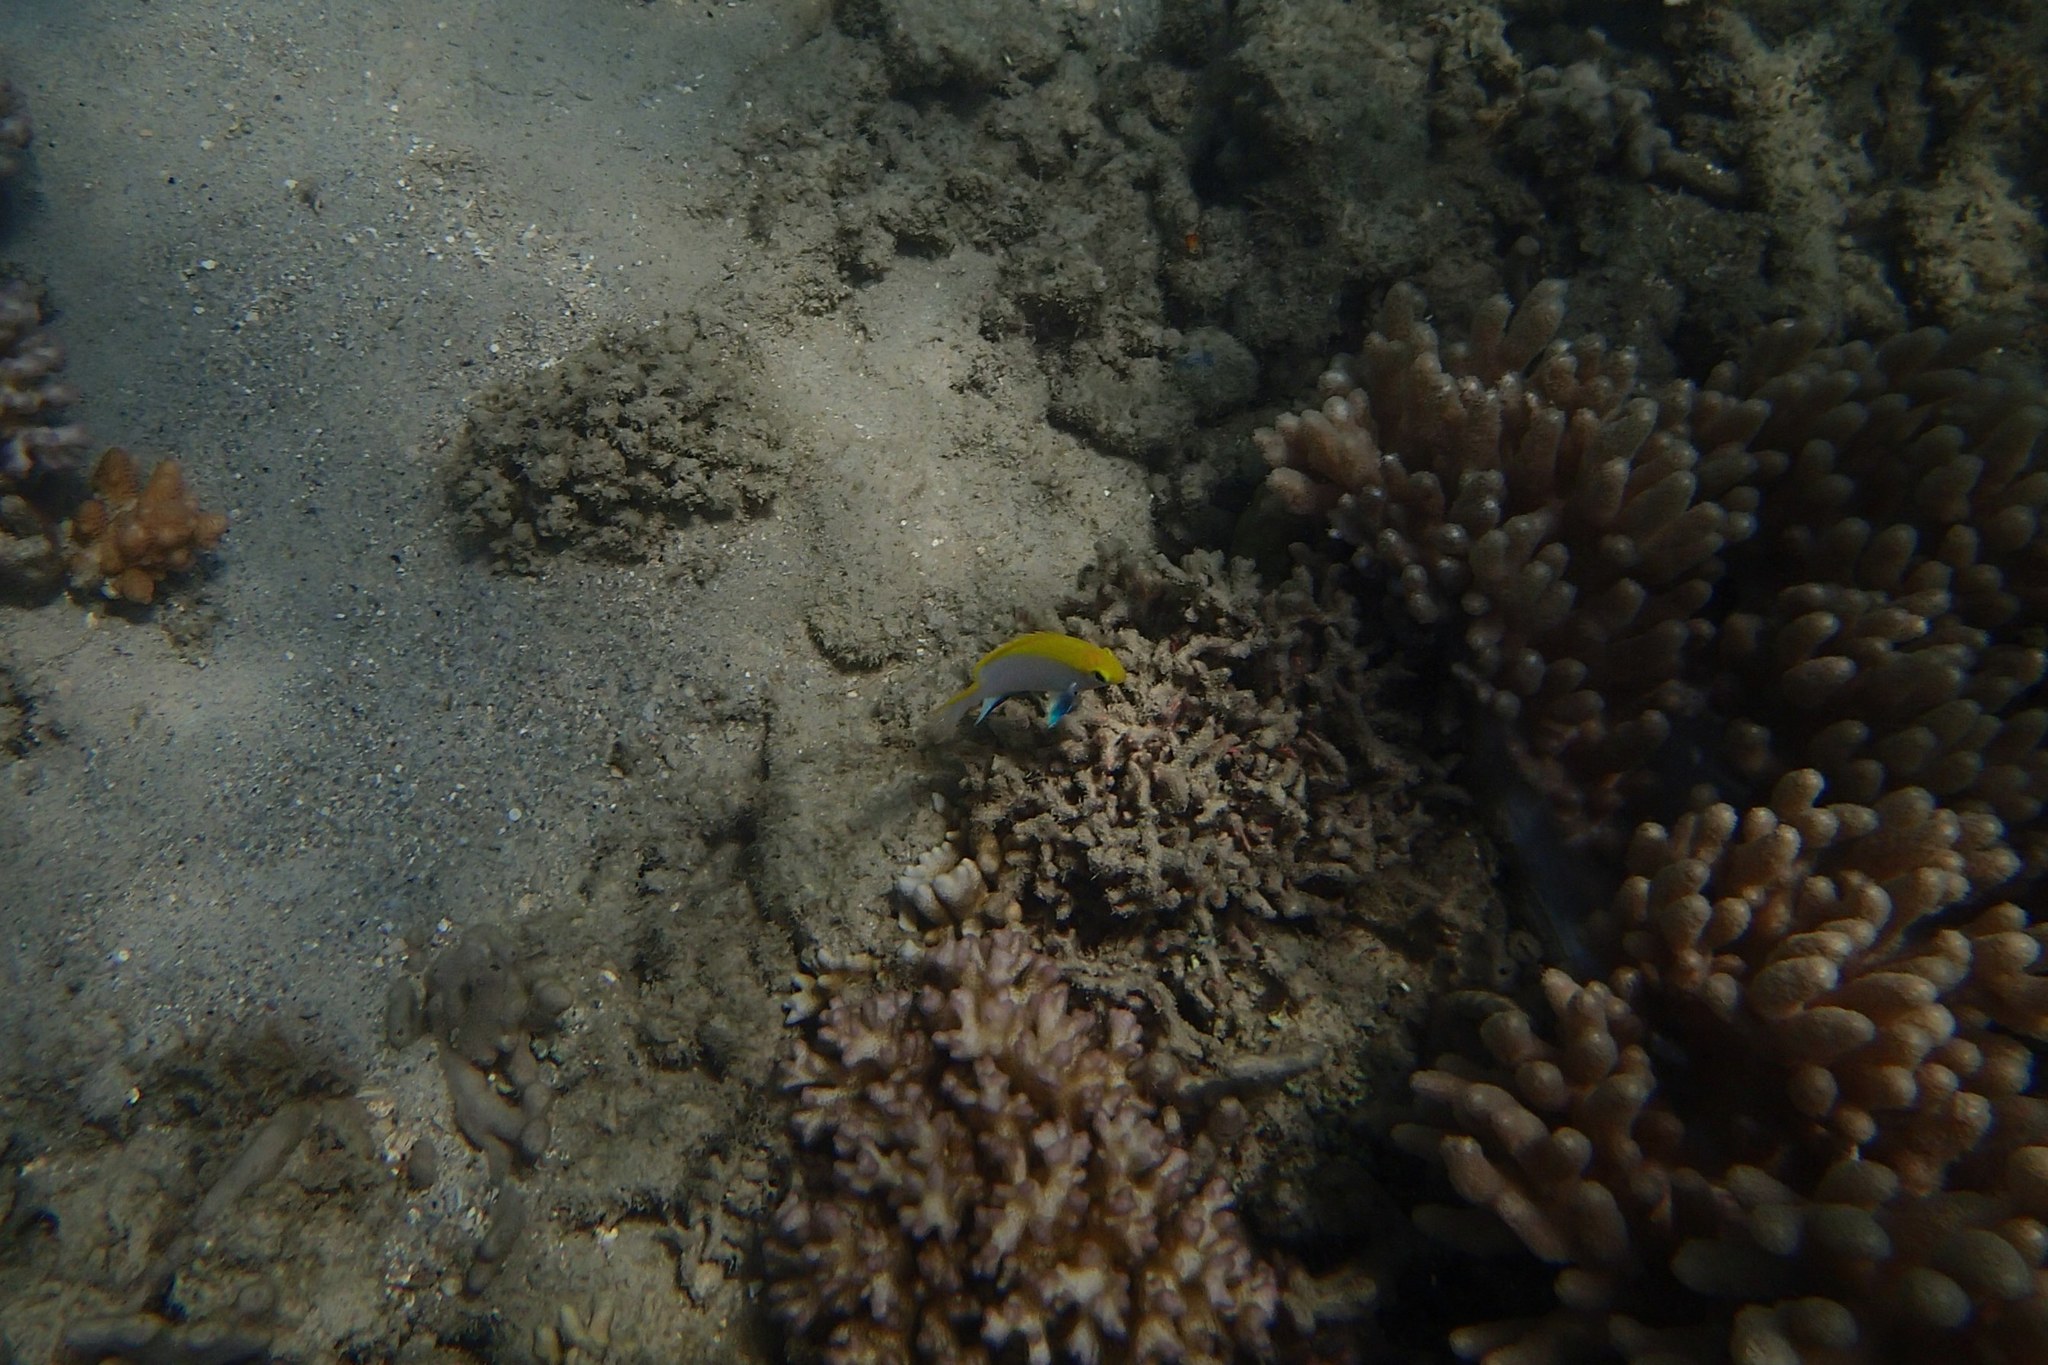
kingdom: Animalia
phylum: Chordata
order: Perciformes
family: Pomacentridae
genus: Neoglyphidodon
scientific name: Neoglyphidodon melas
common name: Black damsel
